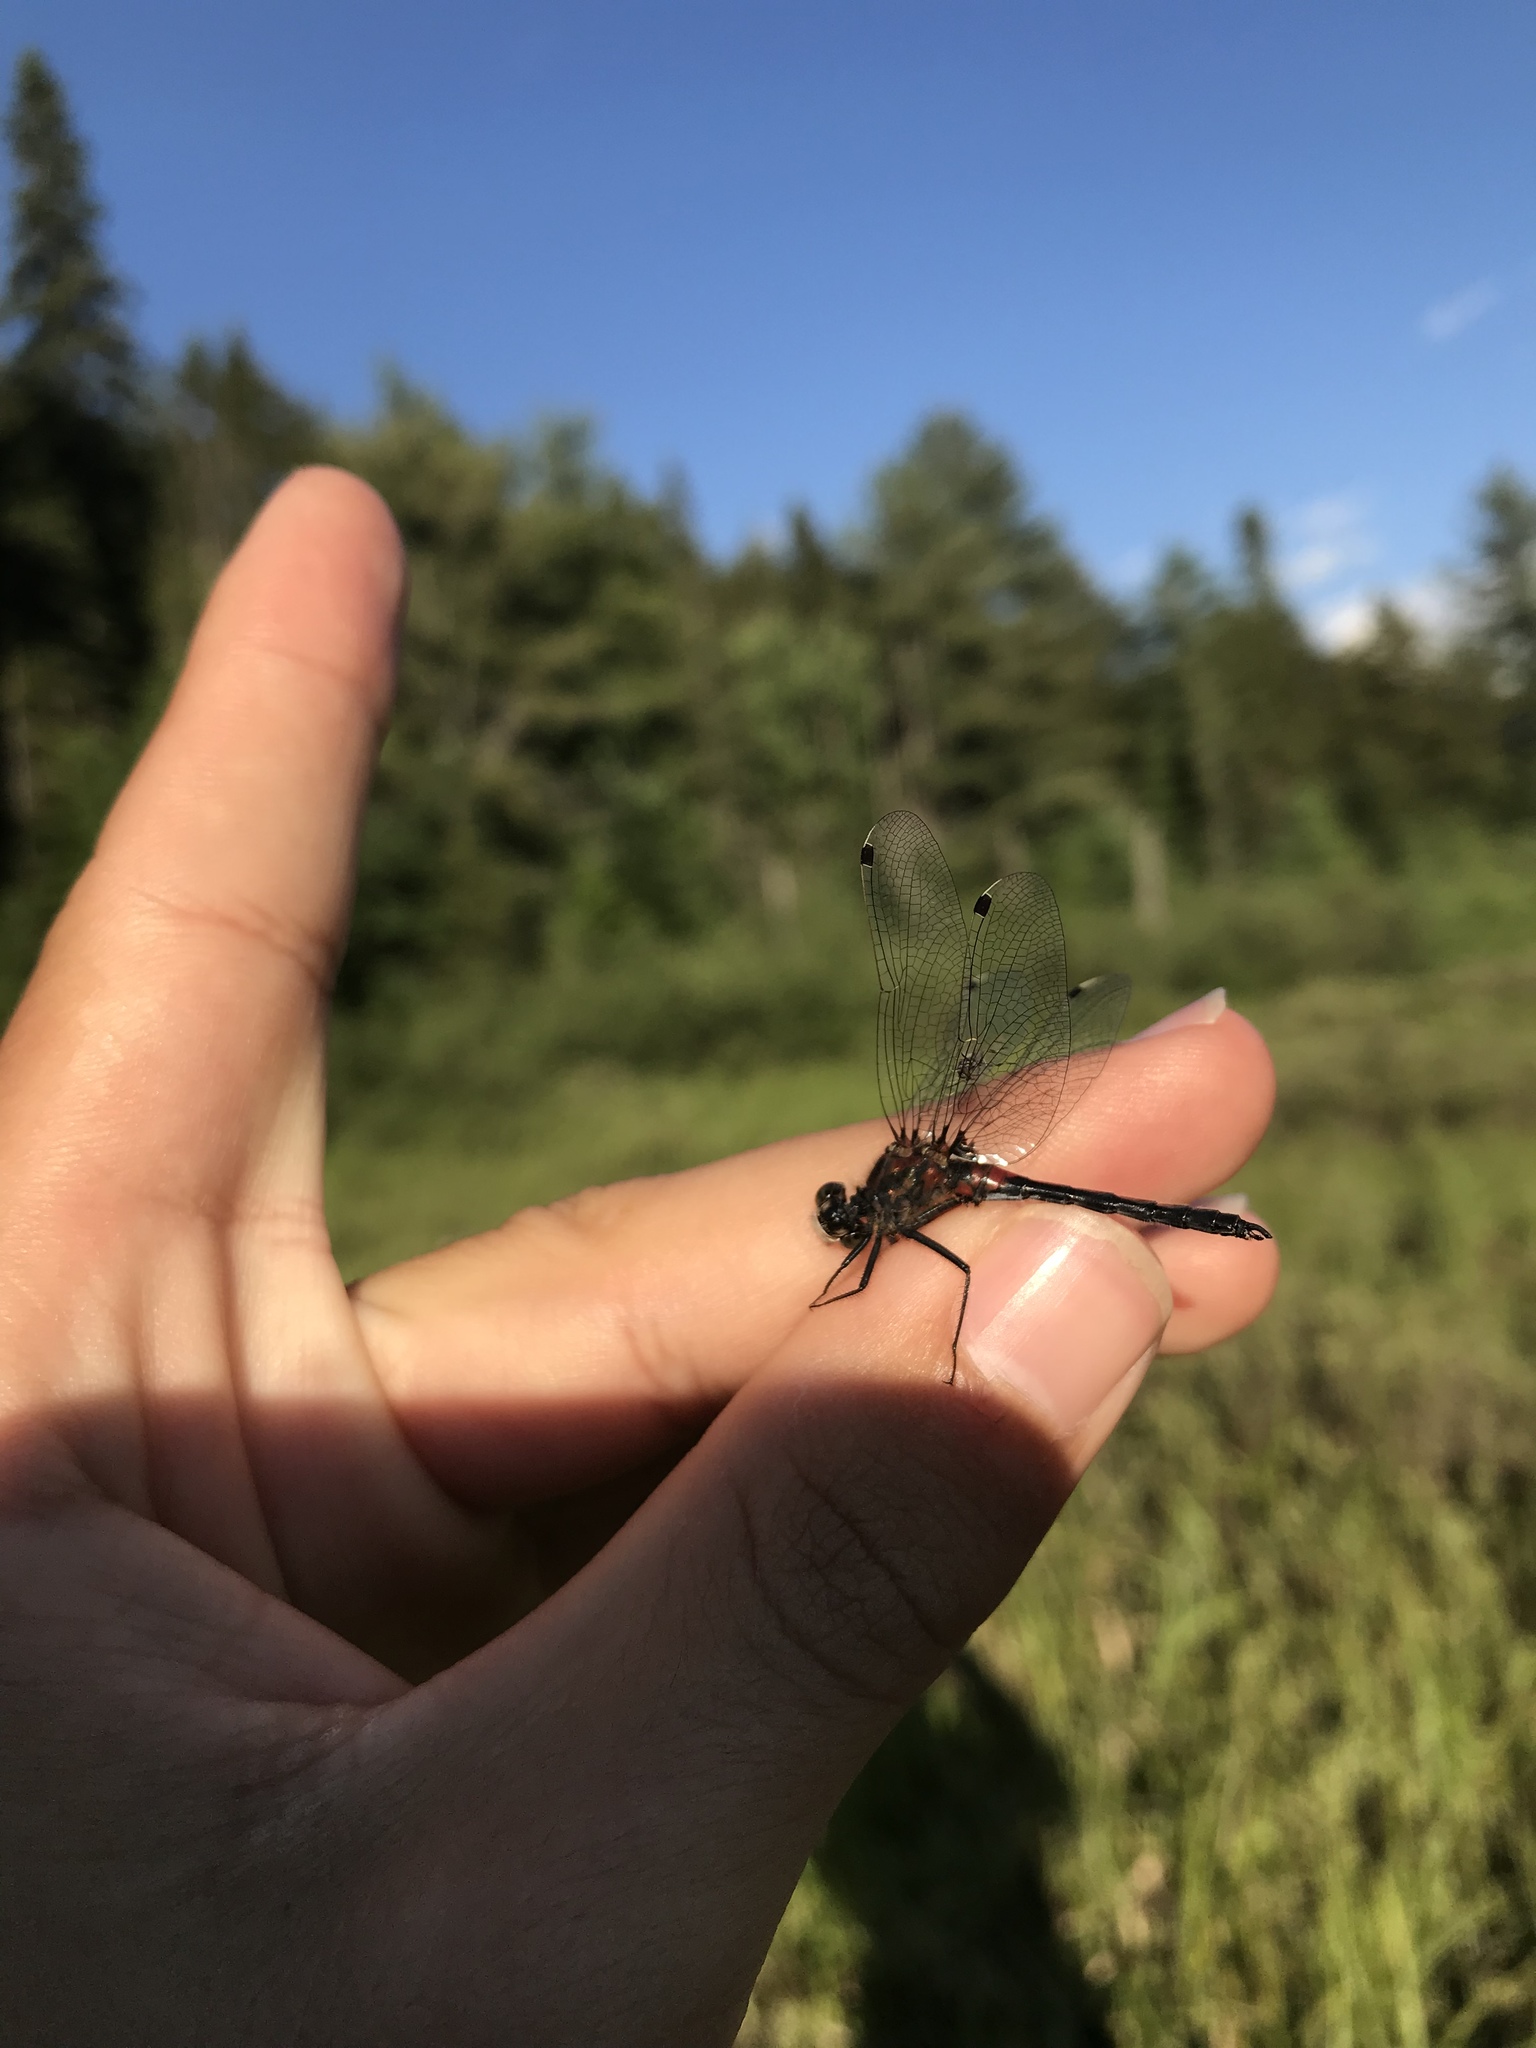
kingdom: Animalia
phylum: Arthropoda
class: Insecta
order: Odonata
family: Libellulidae
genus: Leucorrhinia
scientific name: Leucorrhinia hudsonica
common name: Hudsonian whiteface
